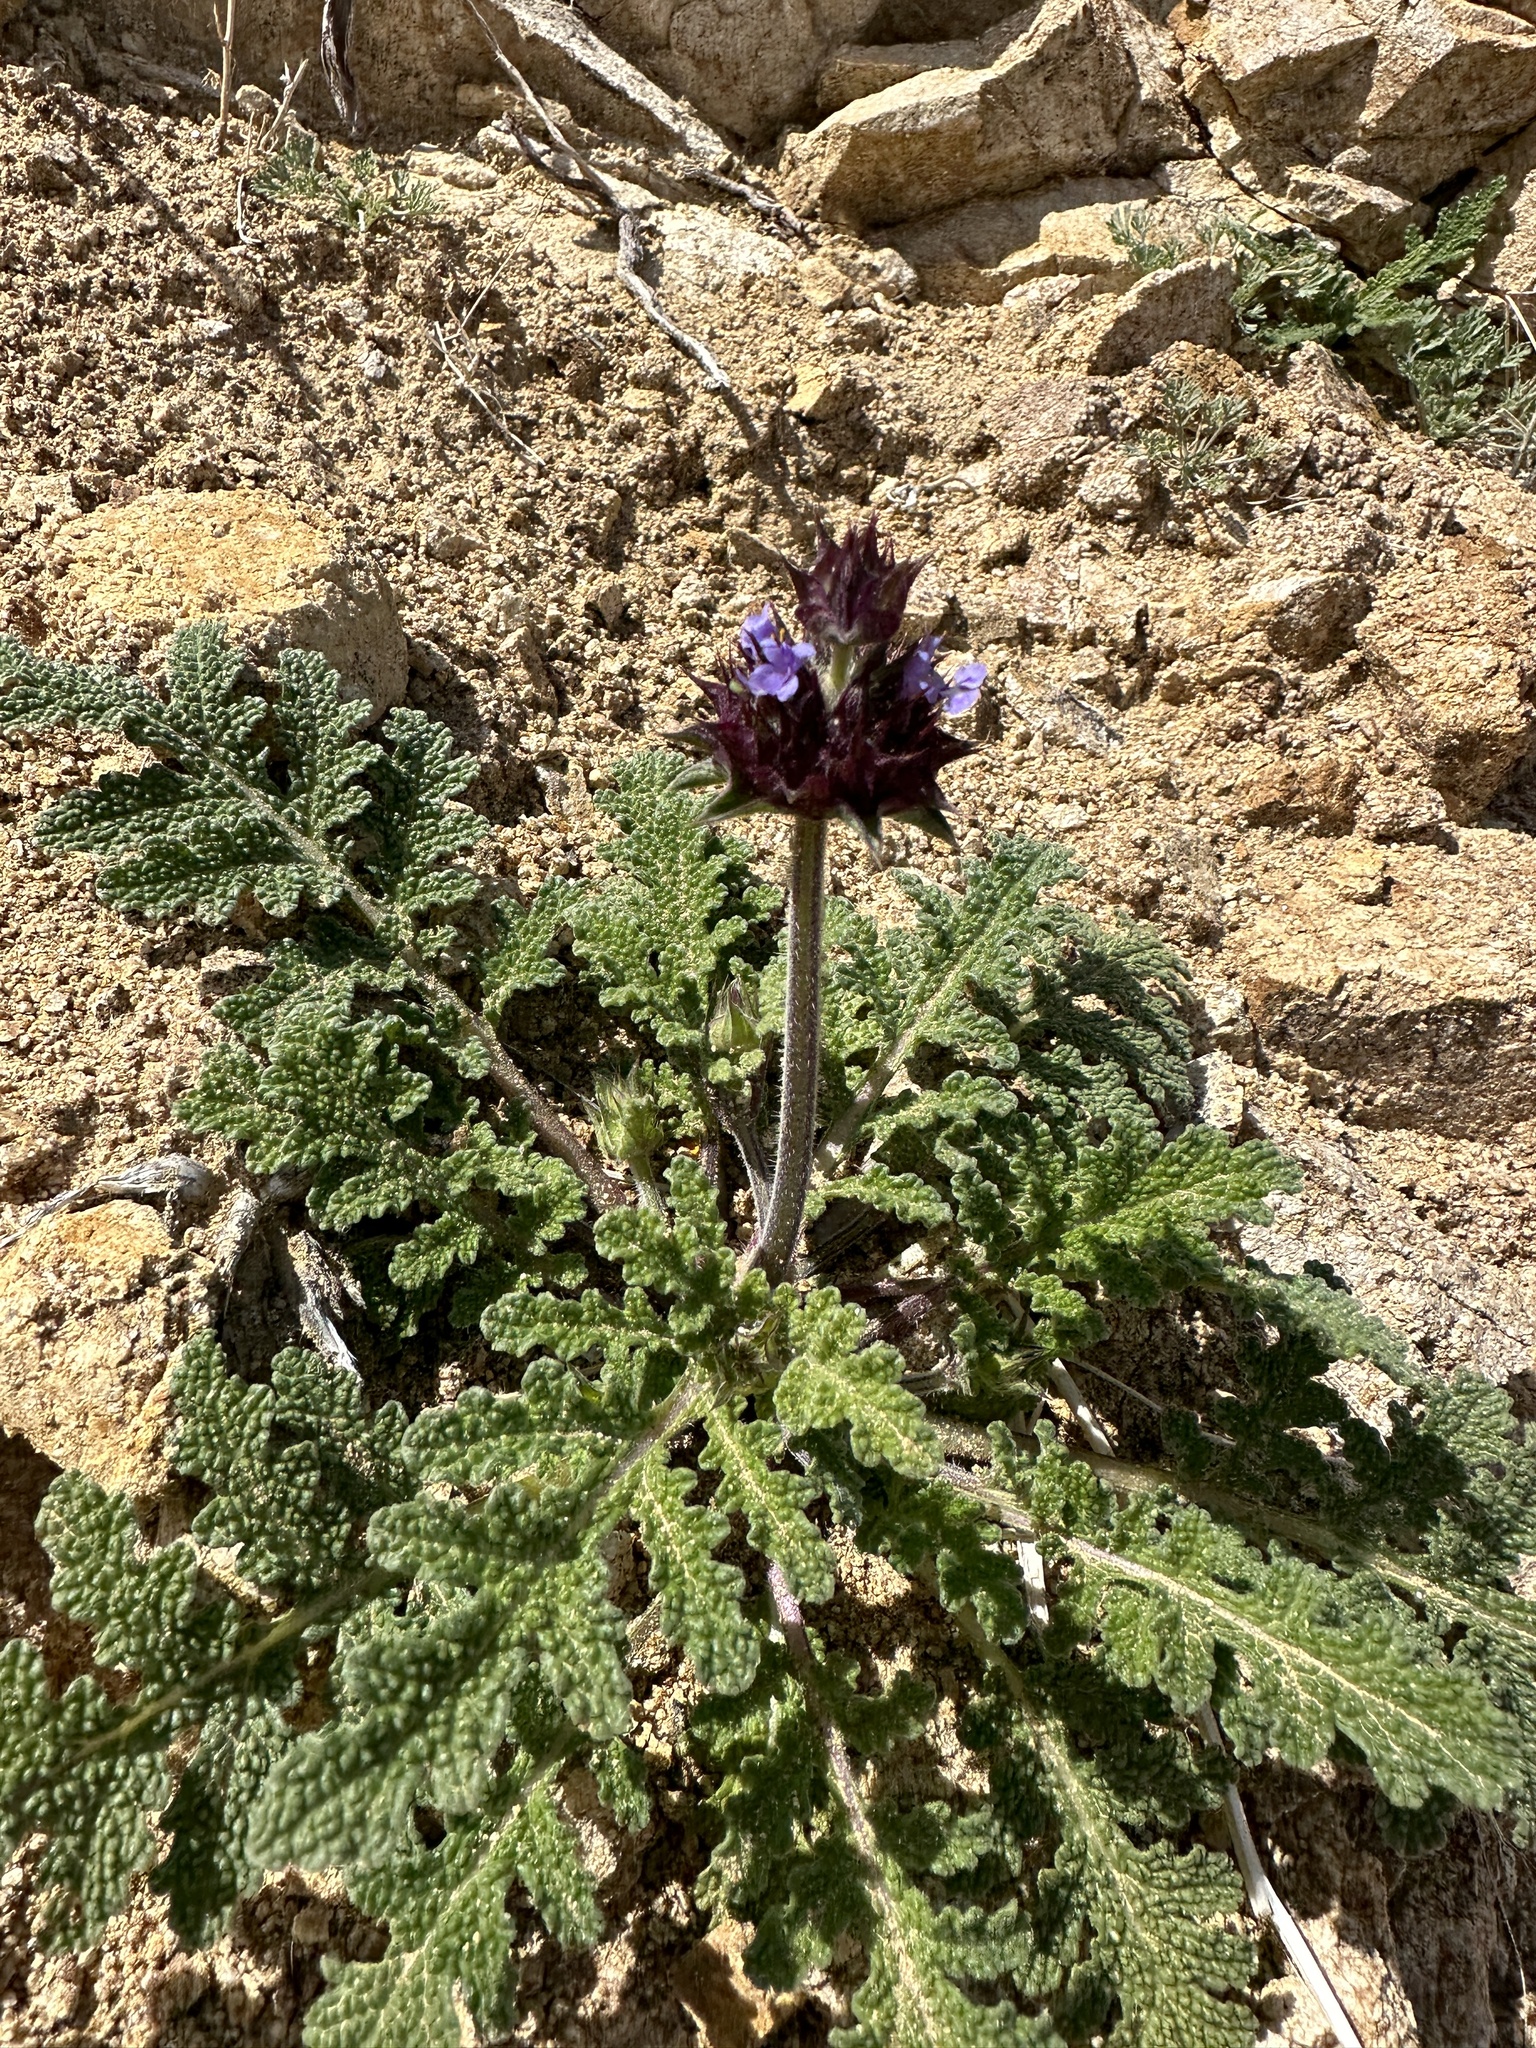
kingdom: Plantae
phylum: Tracheophyta
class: Magnoliopsida
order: Lamiales
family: Lamiaceae
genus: Salvia
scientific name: Salvia columbariae
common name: Chia
